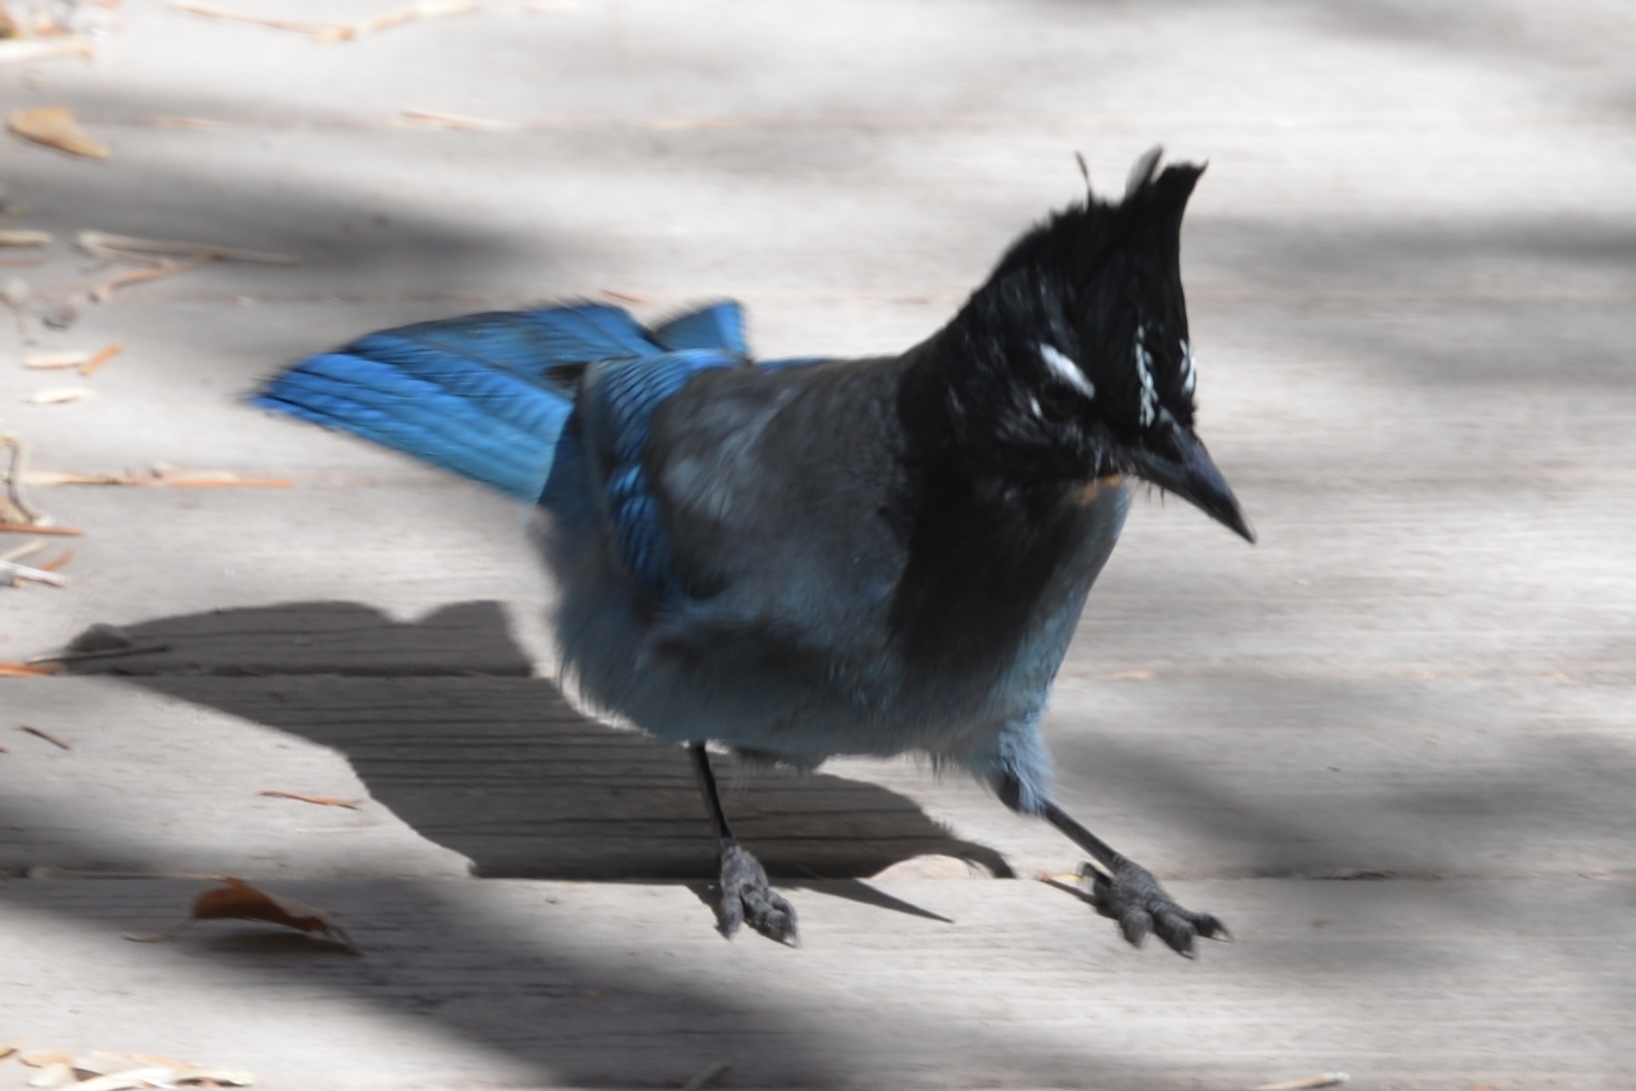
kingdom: Animalia
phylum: Chordata
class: Aves
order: Passeriformes
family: Corvidae
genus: Cyanocitta
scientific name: Cyanocitta stelleri
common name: Steller's jay
